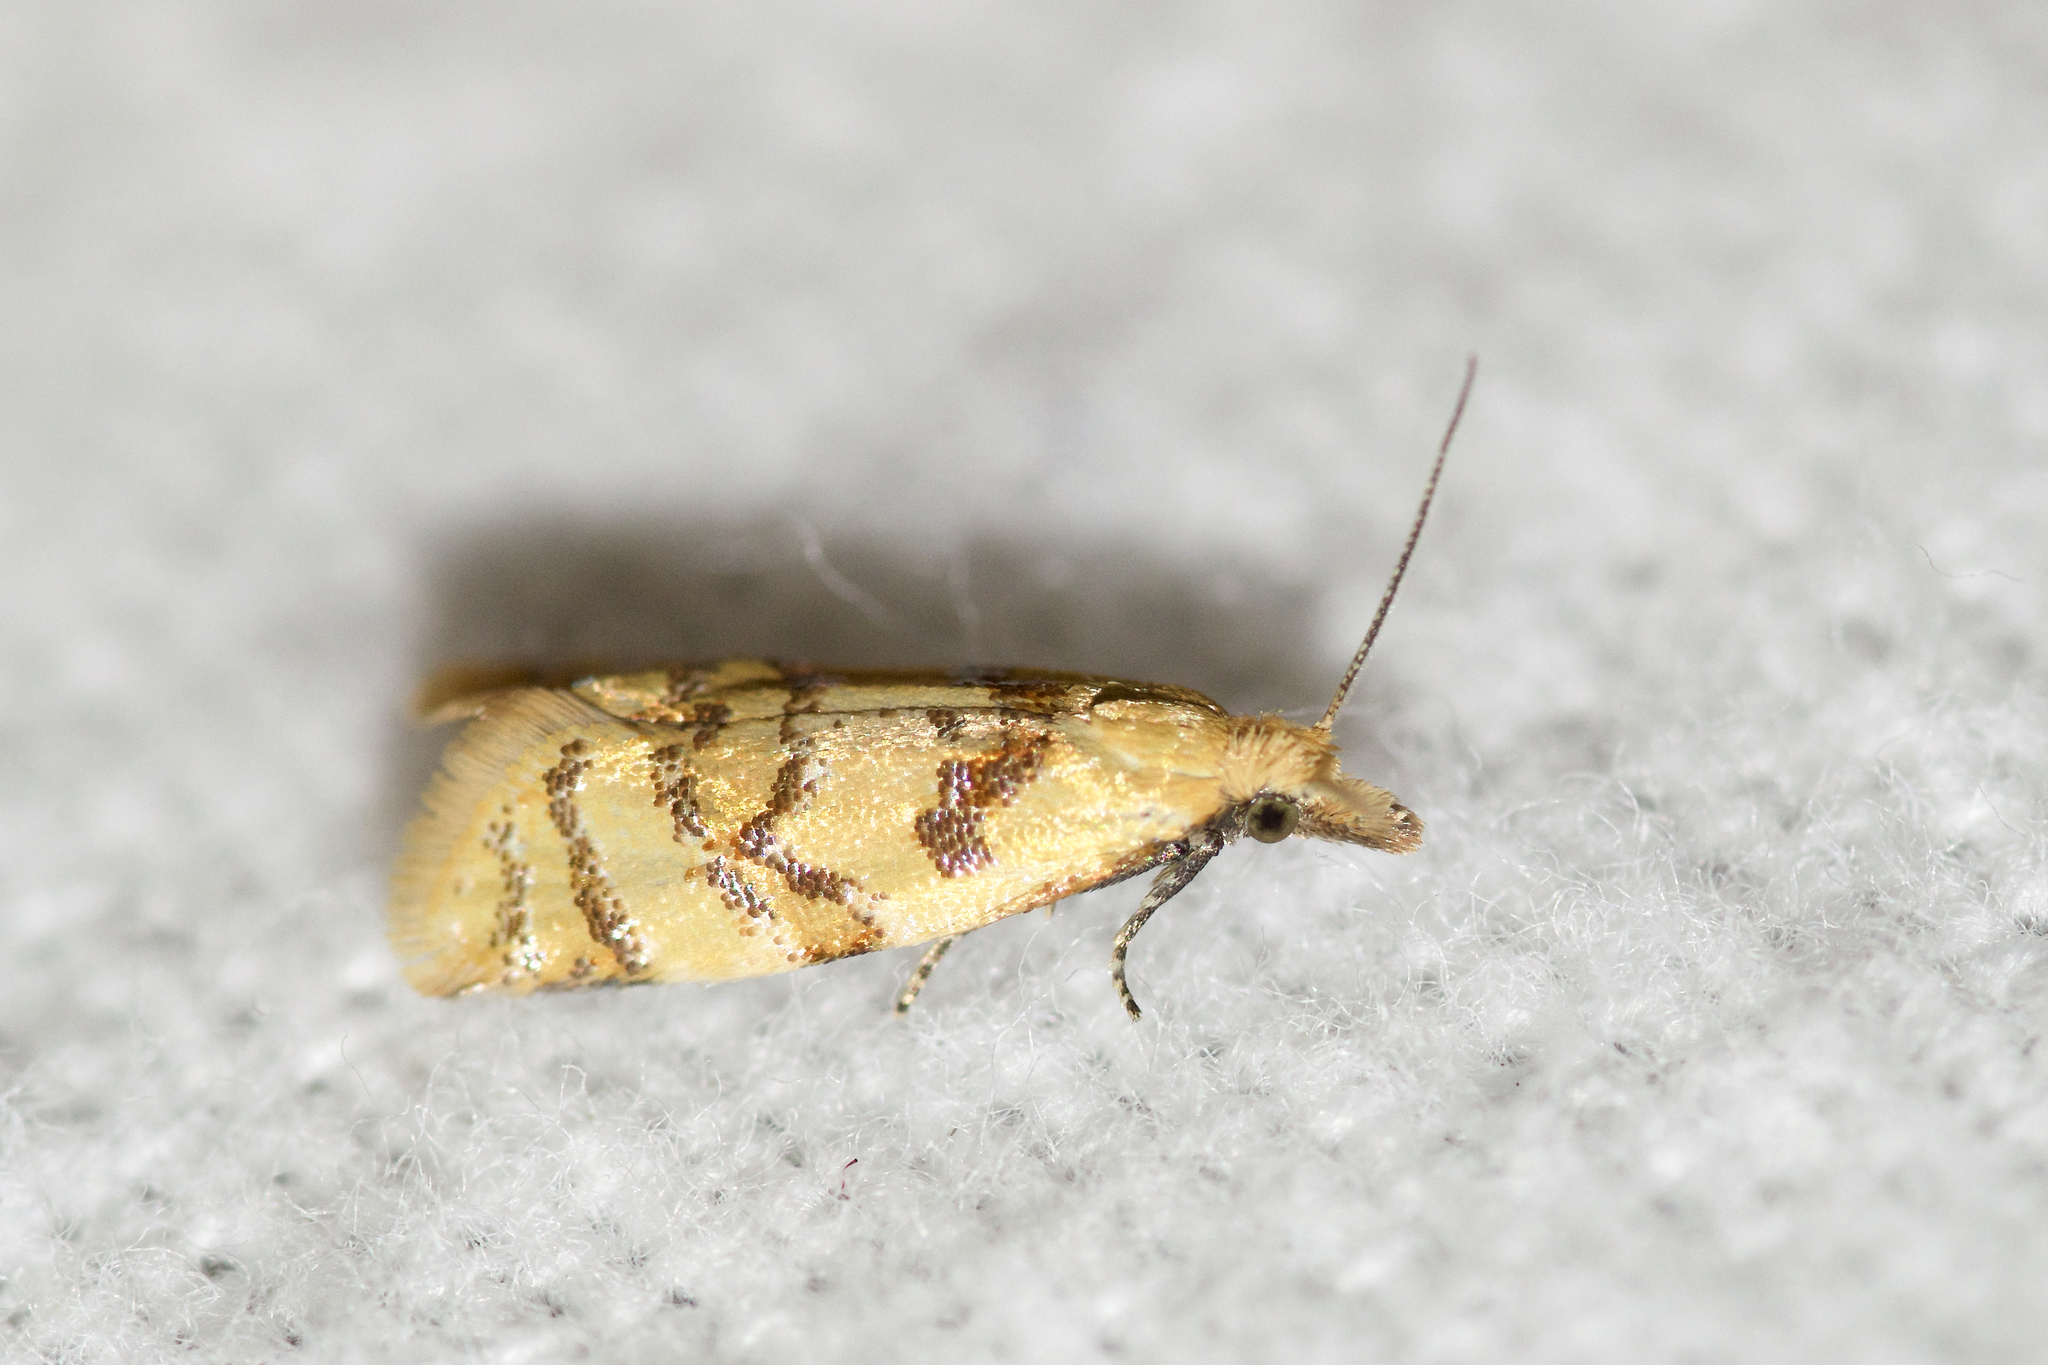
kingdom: Animalia
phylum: Arthropoda
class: Insecta
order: Lepidoptera
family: Tortricidae
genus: Phtheochroa
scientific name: Phtheochroa vitellinana
